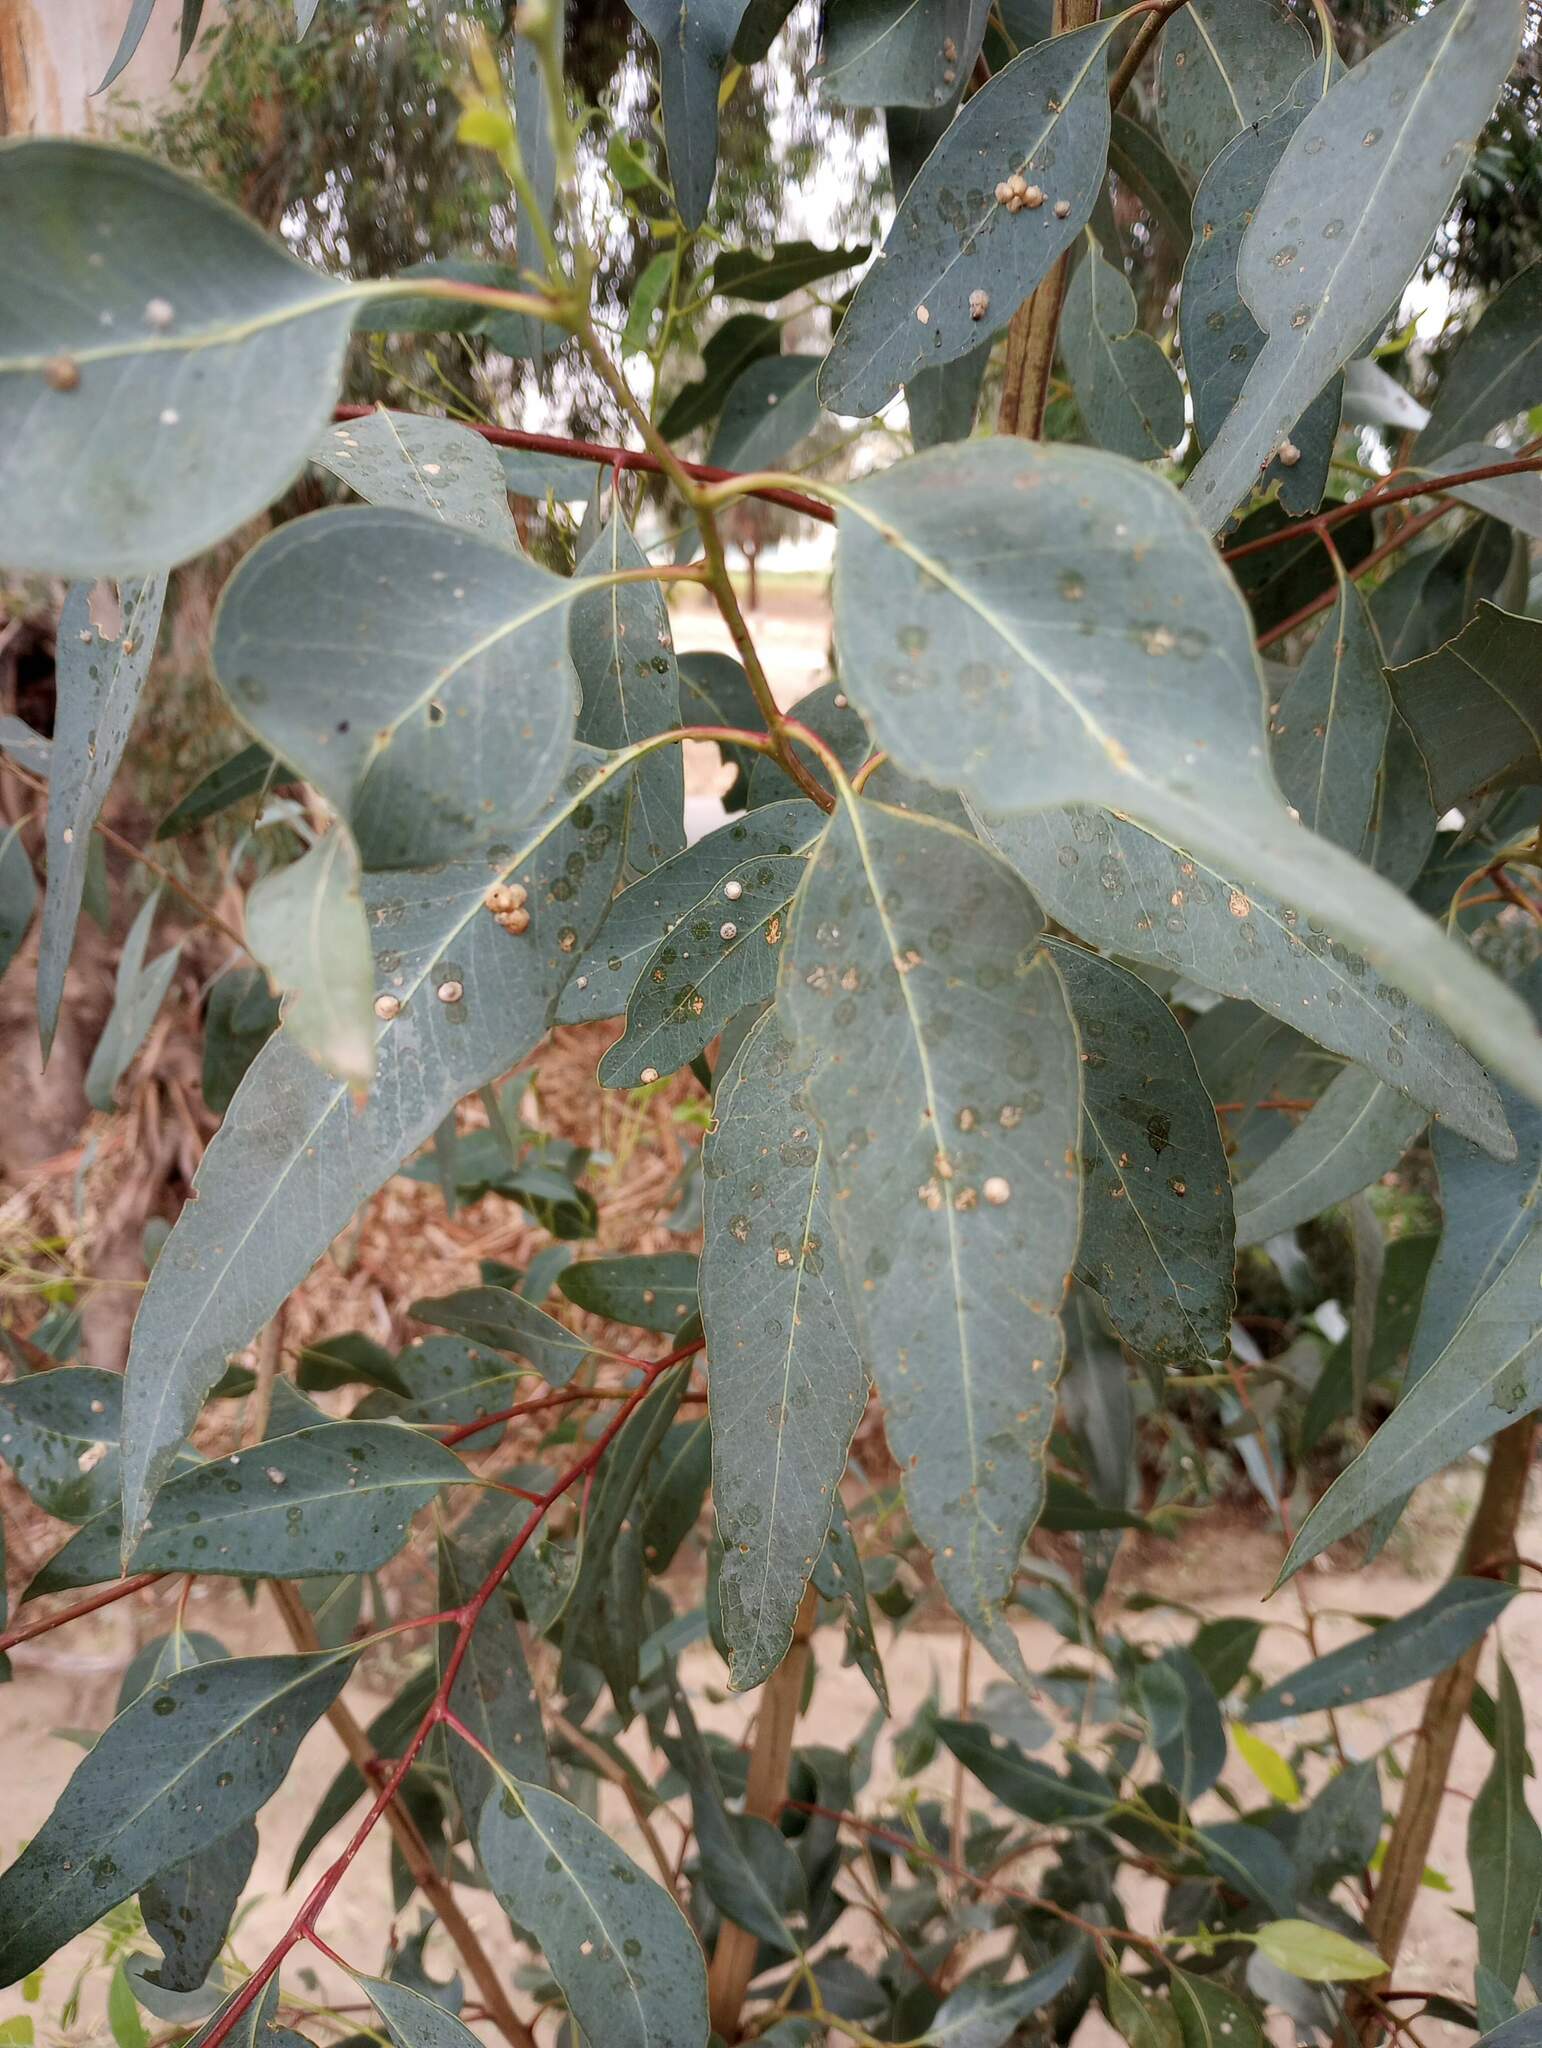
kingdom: Animalia
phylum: Arthropoda
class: Insecta
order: Hemiptera
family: Aphalaridae
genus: Glycaspis
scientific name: Glycaspis brimblecombei
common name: Red gum lerp psyllid
